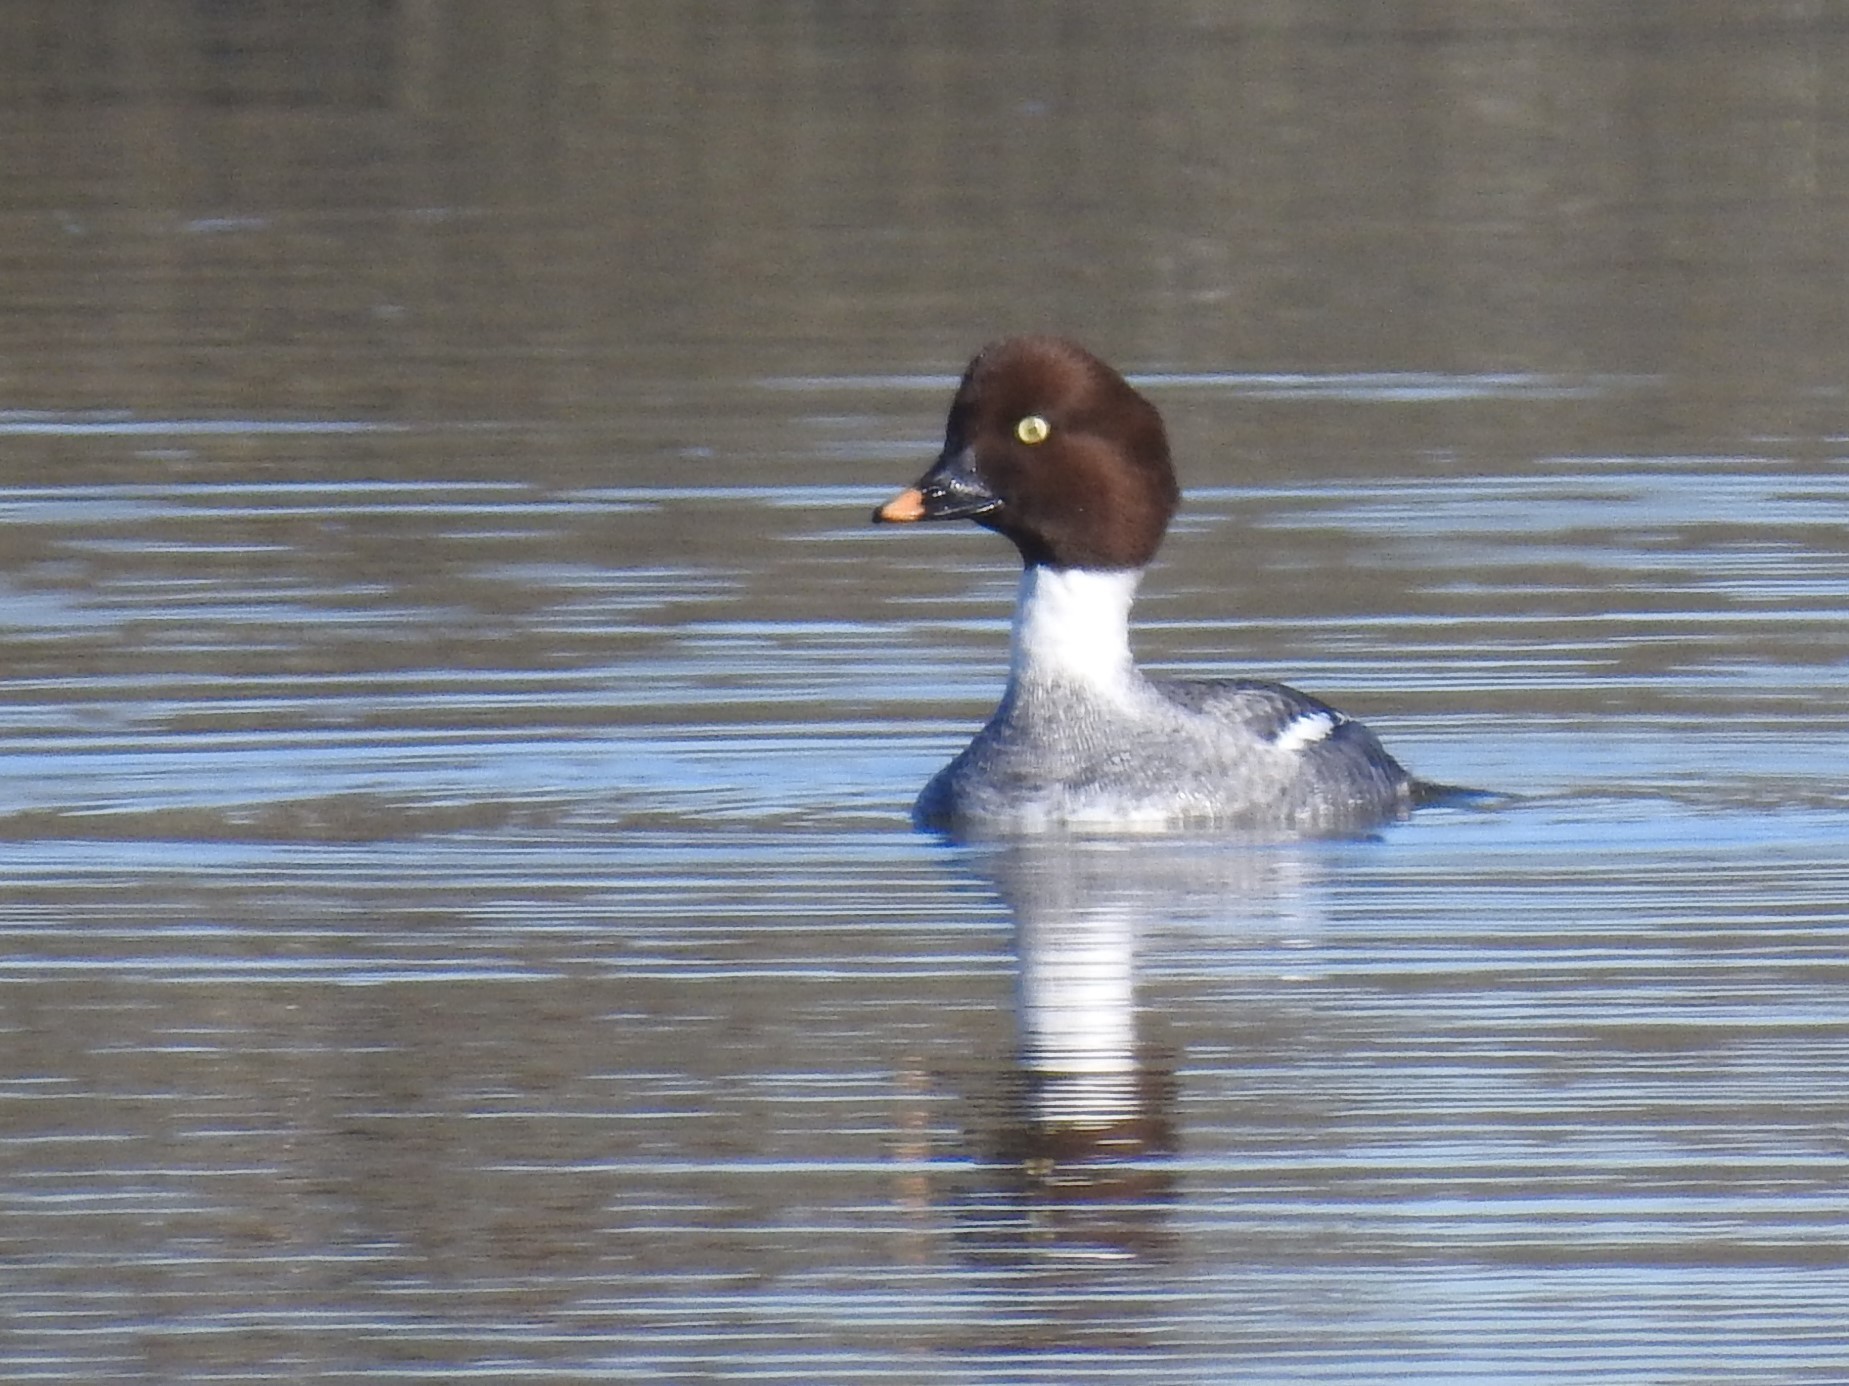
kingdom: Animalia
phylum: Chordata
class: Aves
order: Anseriformes
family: Anatidae
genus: Bucephala
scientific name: Bucephala clangula
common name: Common goldeneye
